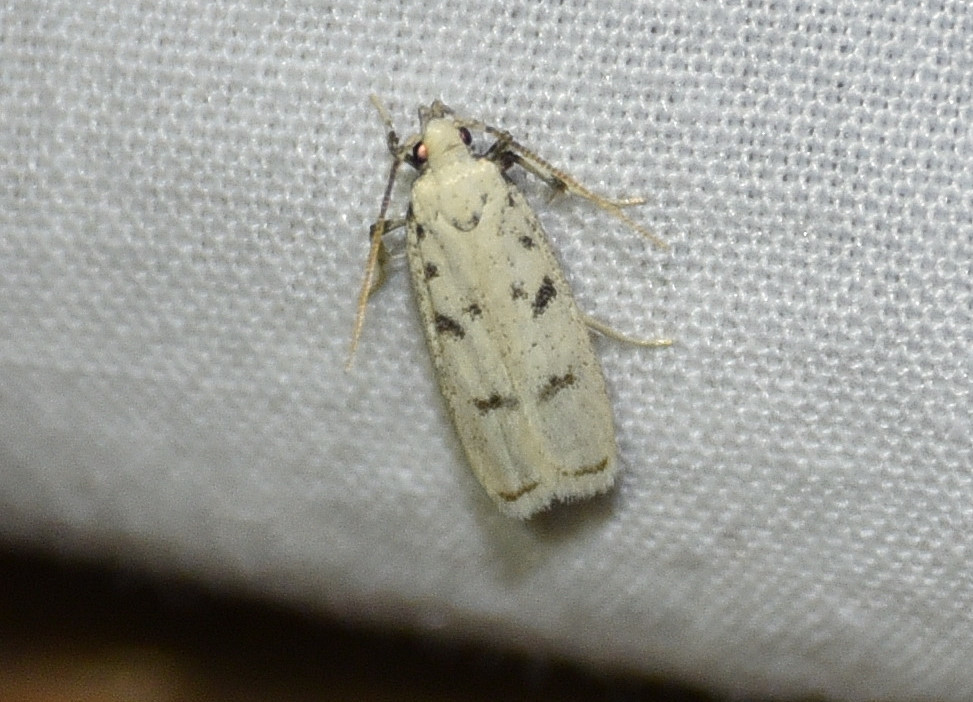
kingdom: Animalia
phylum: Arthropoda
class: Insecta
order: Lepidoptera
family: Autostichidae
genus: Glyphidocera
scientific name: Glyphidocera lactiflosella
